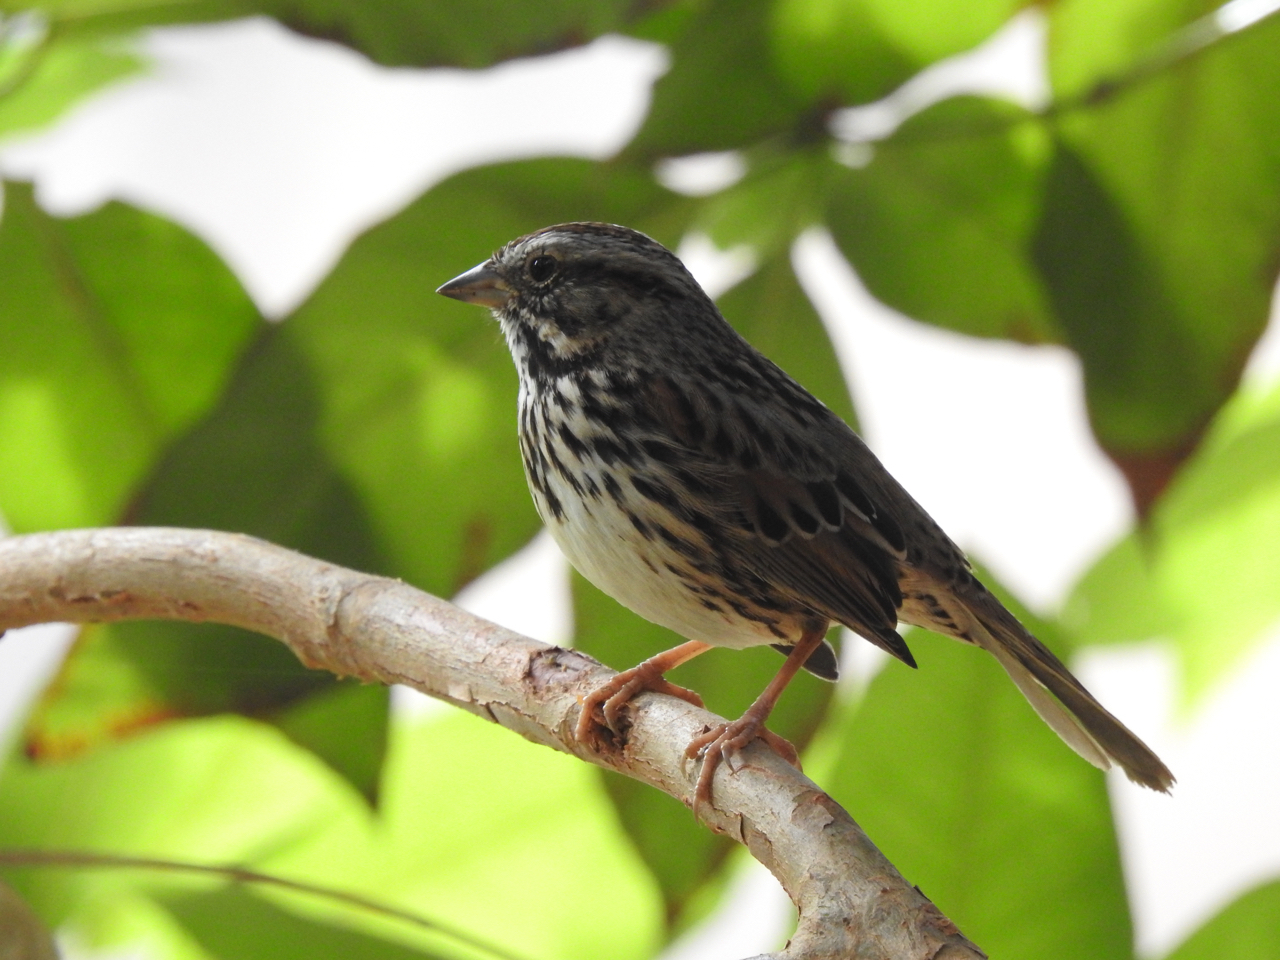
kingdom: Animalia
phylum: Chordata
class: Aves
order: Passeriformes
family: Passerellidae
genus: Melospiza
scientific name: Melospiza melodia
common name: Song sparrow
